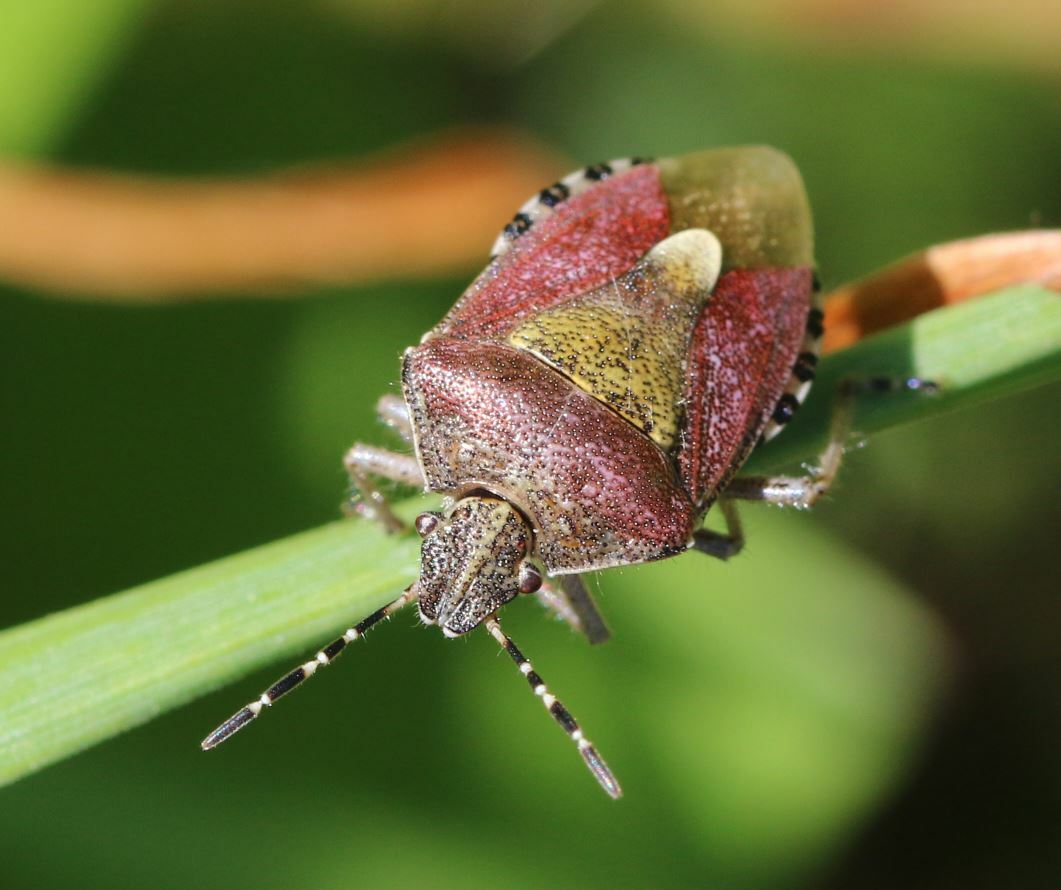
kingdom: Animalia
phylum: Arthropoda
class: Insecta
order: Hemiptera
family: Pentatomidae
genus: Dolycoris
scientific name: Dolycoris baccarum
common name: Sloe bug
